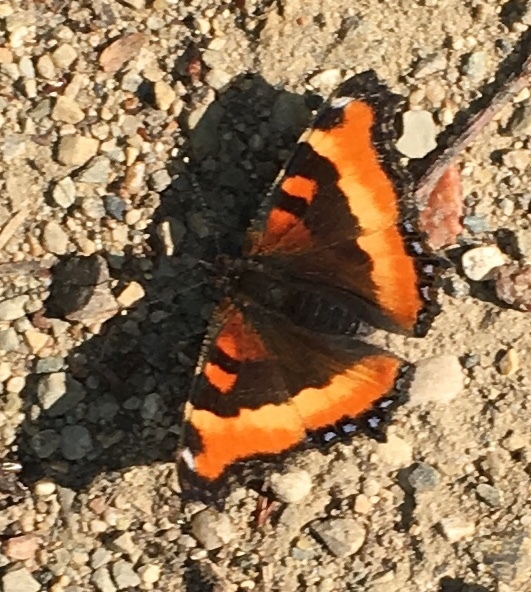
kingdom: Animalia
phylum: Arthropoda
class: Insecta
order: Lepidoptera
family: Nymphalidae
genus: Aglais
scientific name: Aglais milberti
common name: Milbert's tortoiseshell
